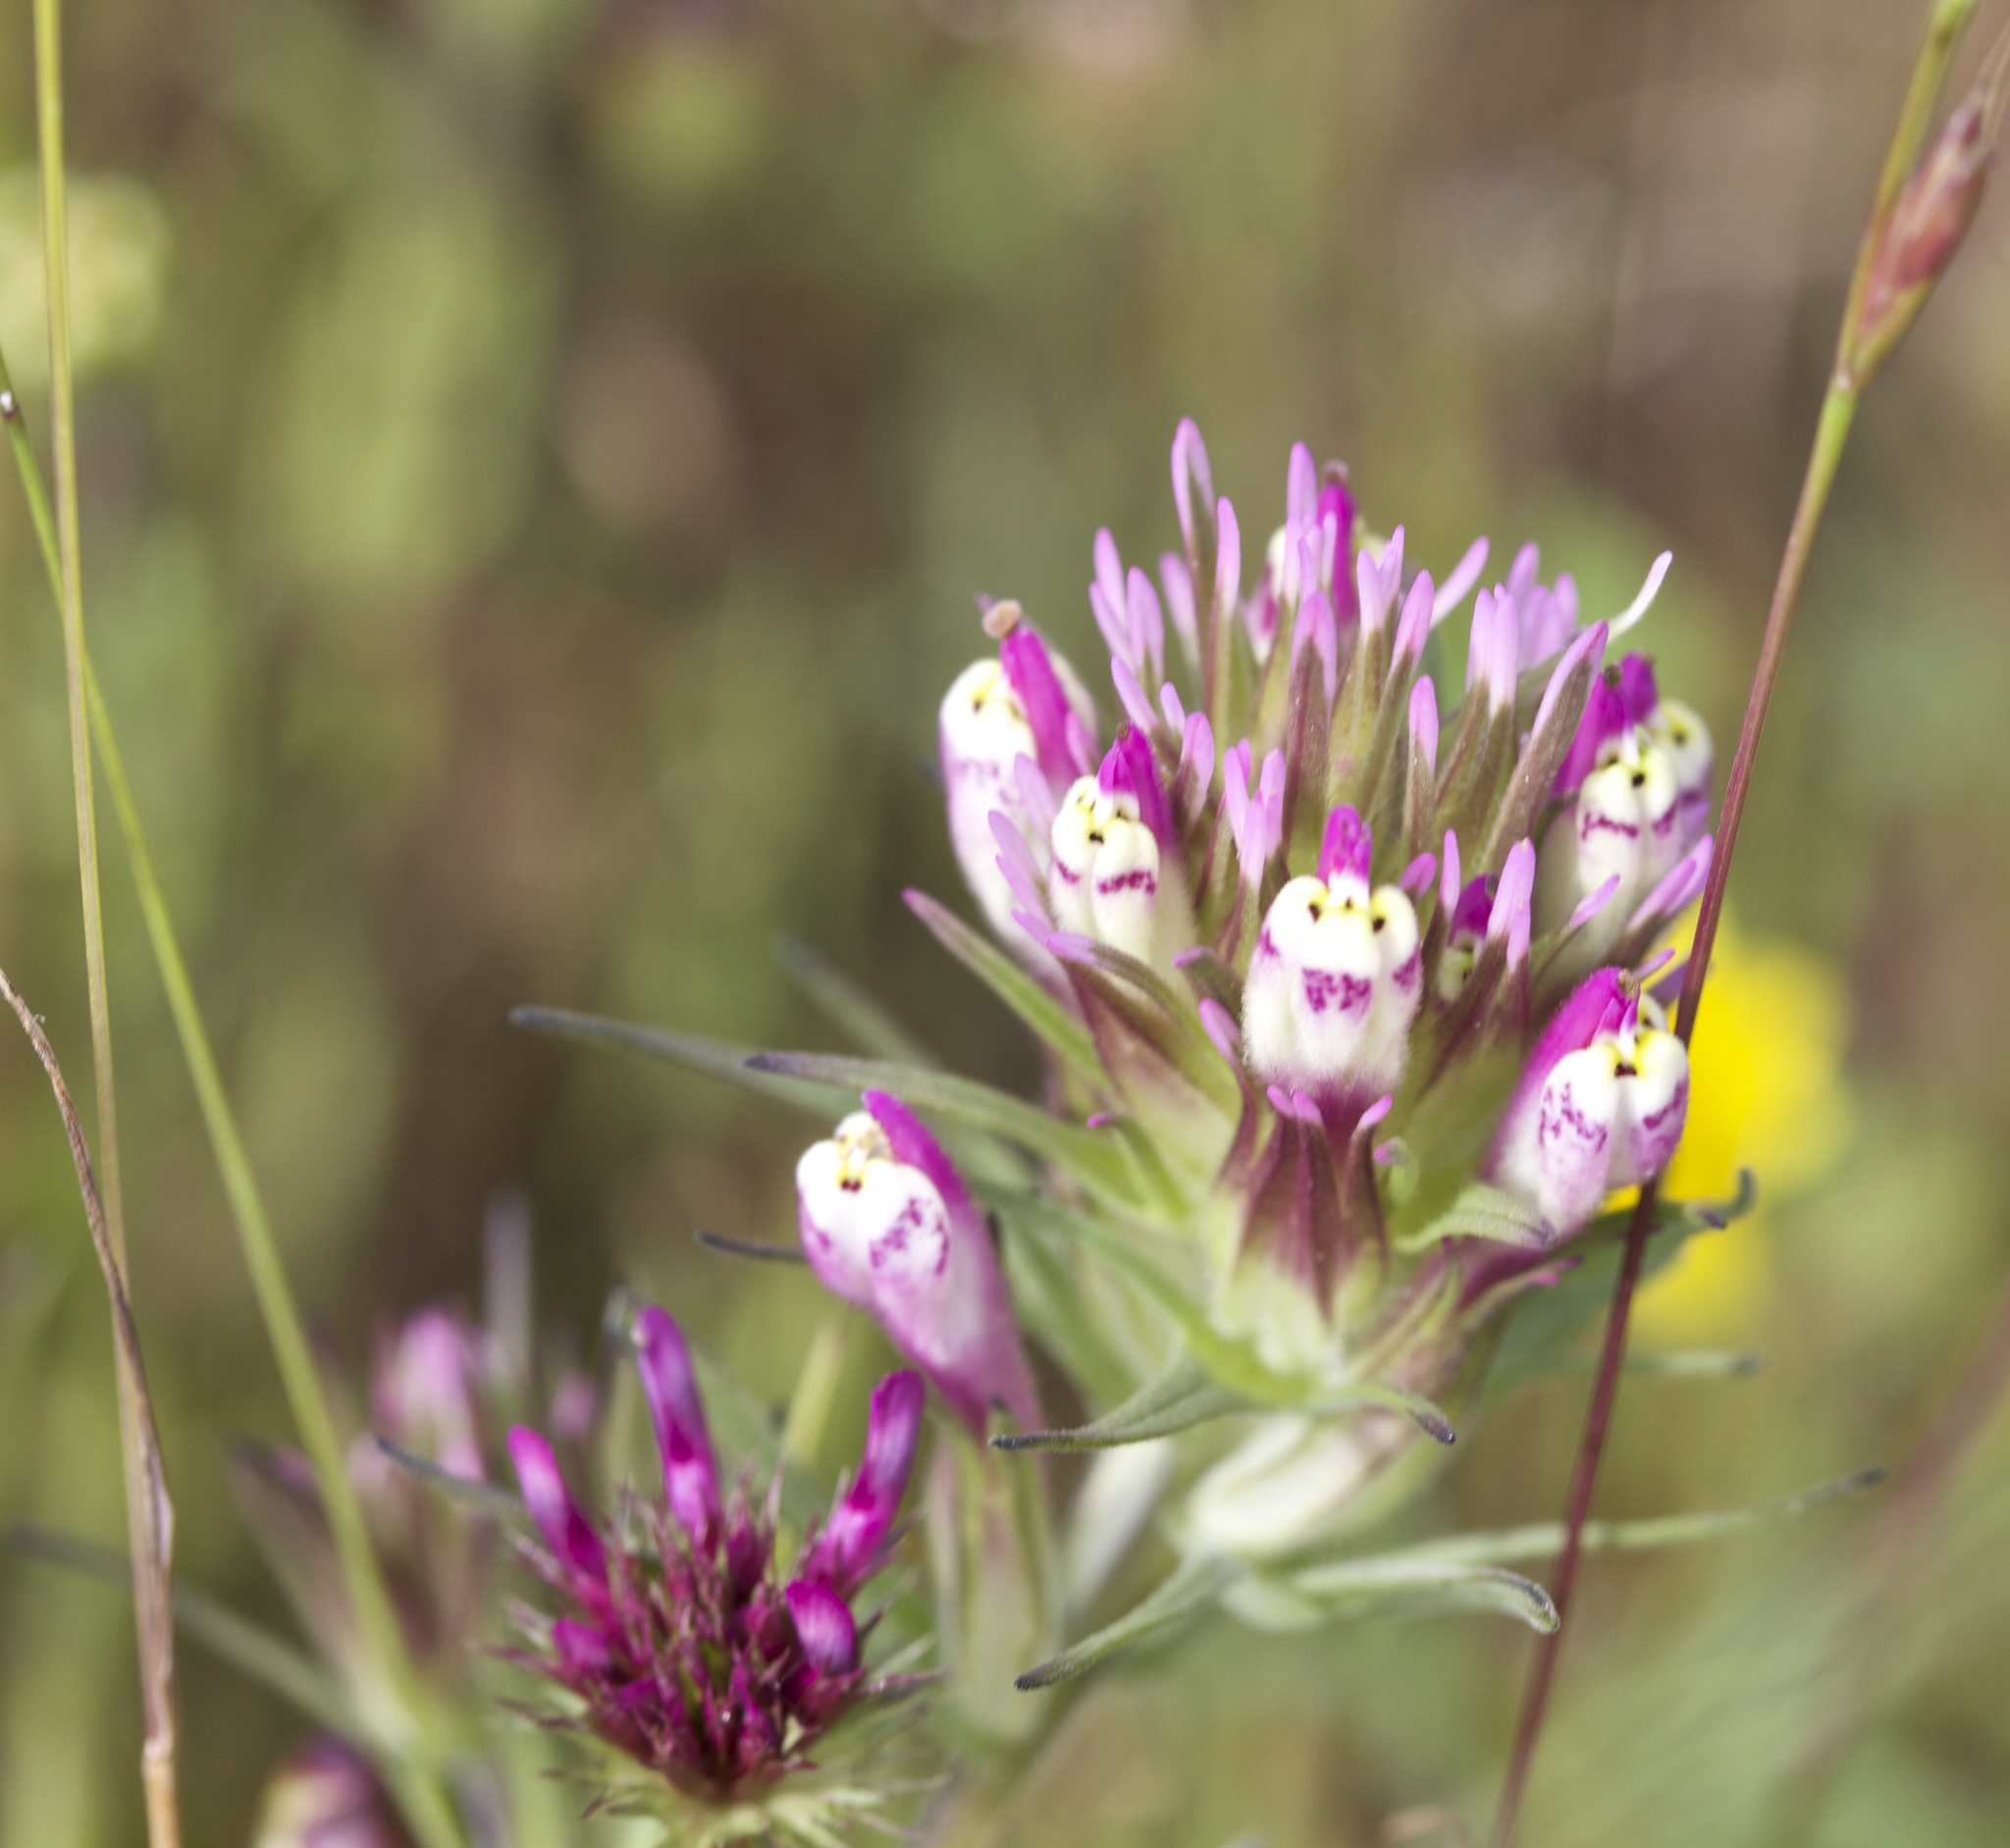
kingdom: Plantae
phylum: Tracheophyta
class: Magnoliopsida
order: Lamiales
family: Orobanchaceae
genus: Castilleja
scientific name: Castilleja densiflora
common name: Dense-flower indian paintbrush
